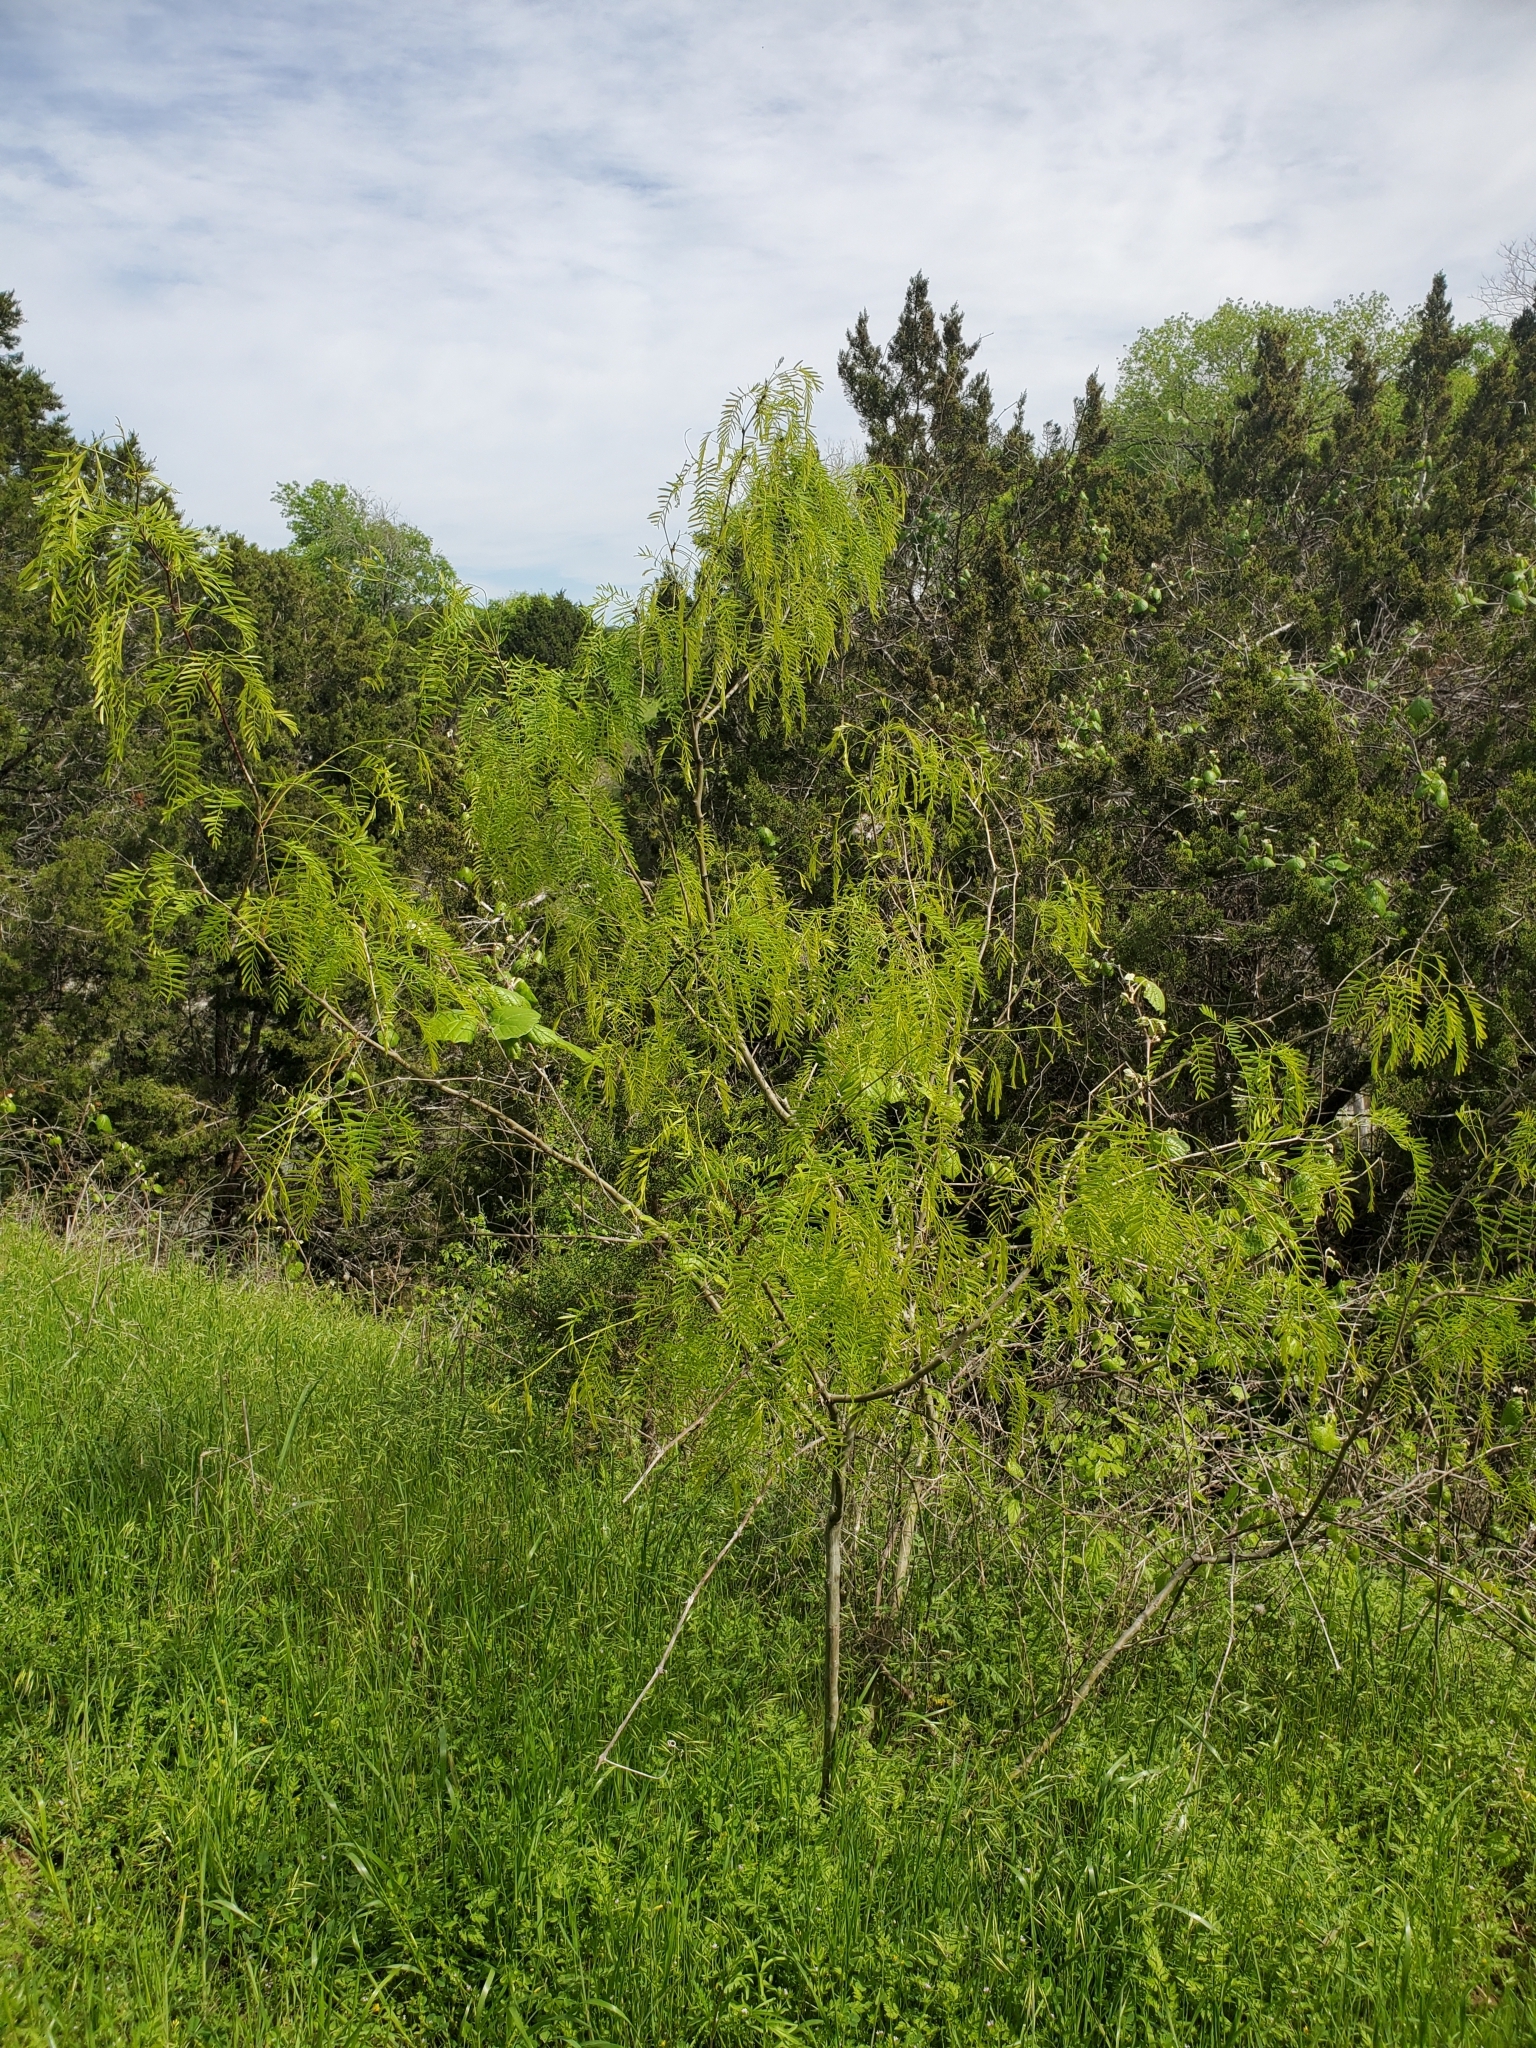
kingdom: Plantae
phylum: Tracheophyta
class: Magnoliopsida
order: Fabales
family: Fabaceae
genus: Prosopis
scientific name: Prosopis glandulosa
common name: Honey mesquite
